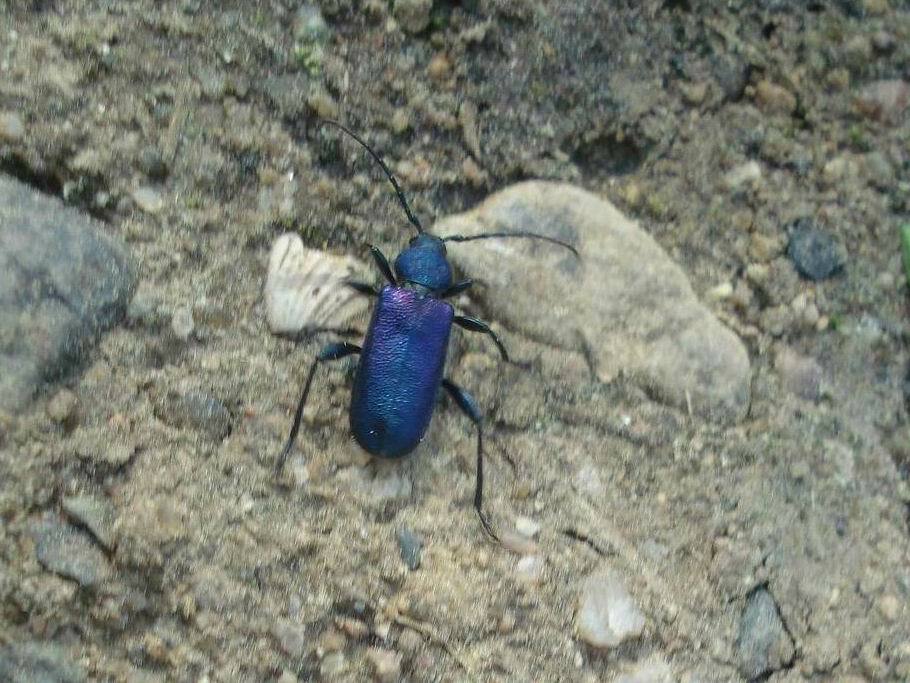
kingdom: Animalia
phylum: Arthropoda
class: Insecta
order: Coleoptera
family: Cerambycidae
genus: Callidium
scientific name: Callidium violaceum
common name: Violet tanbark beetle
